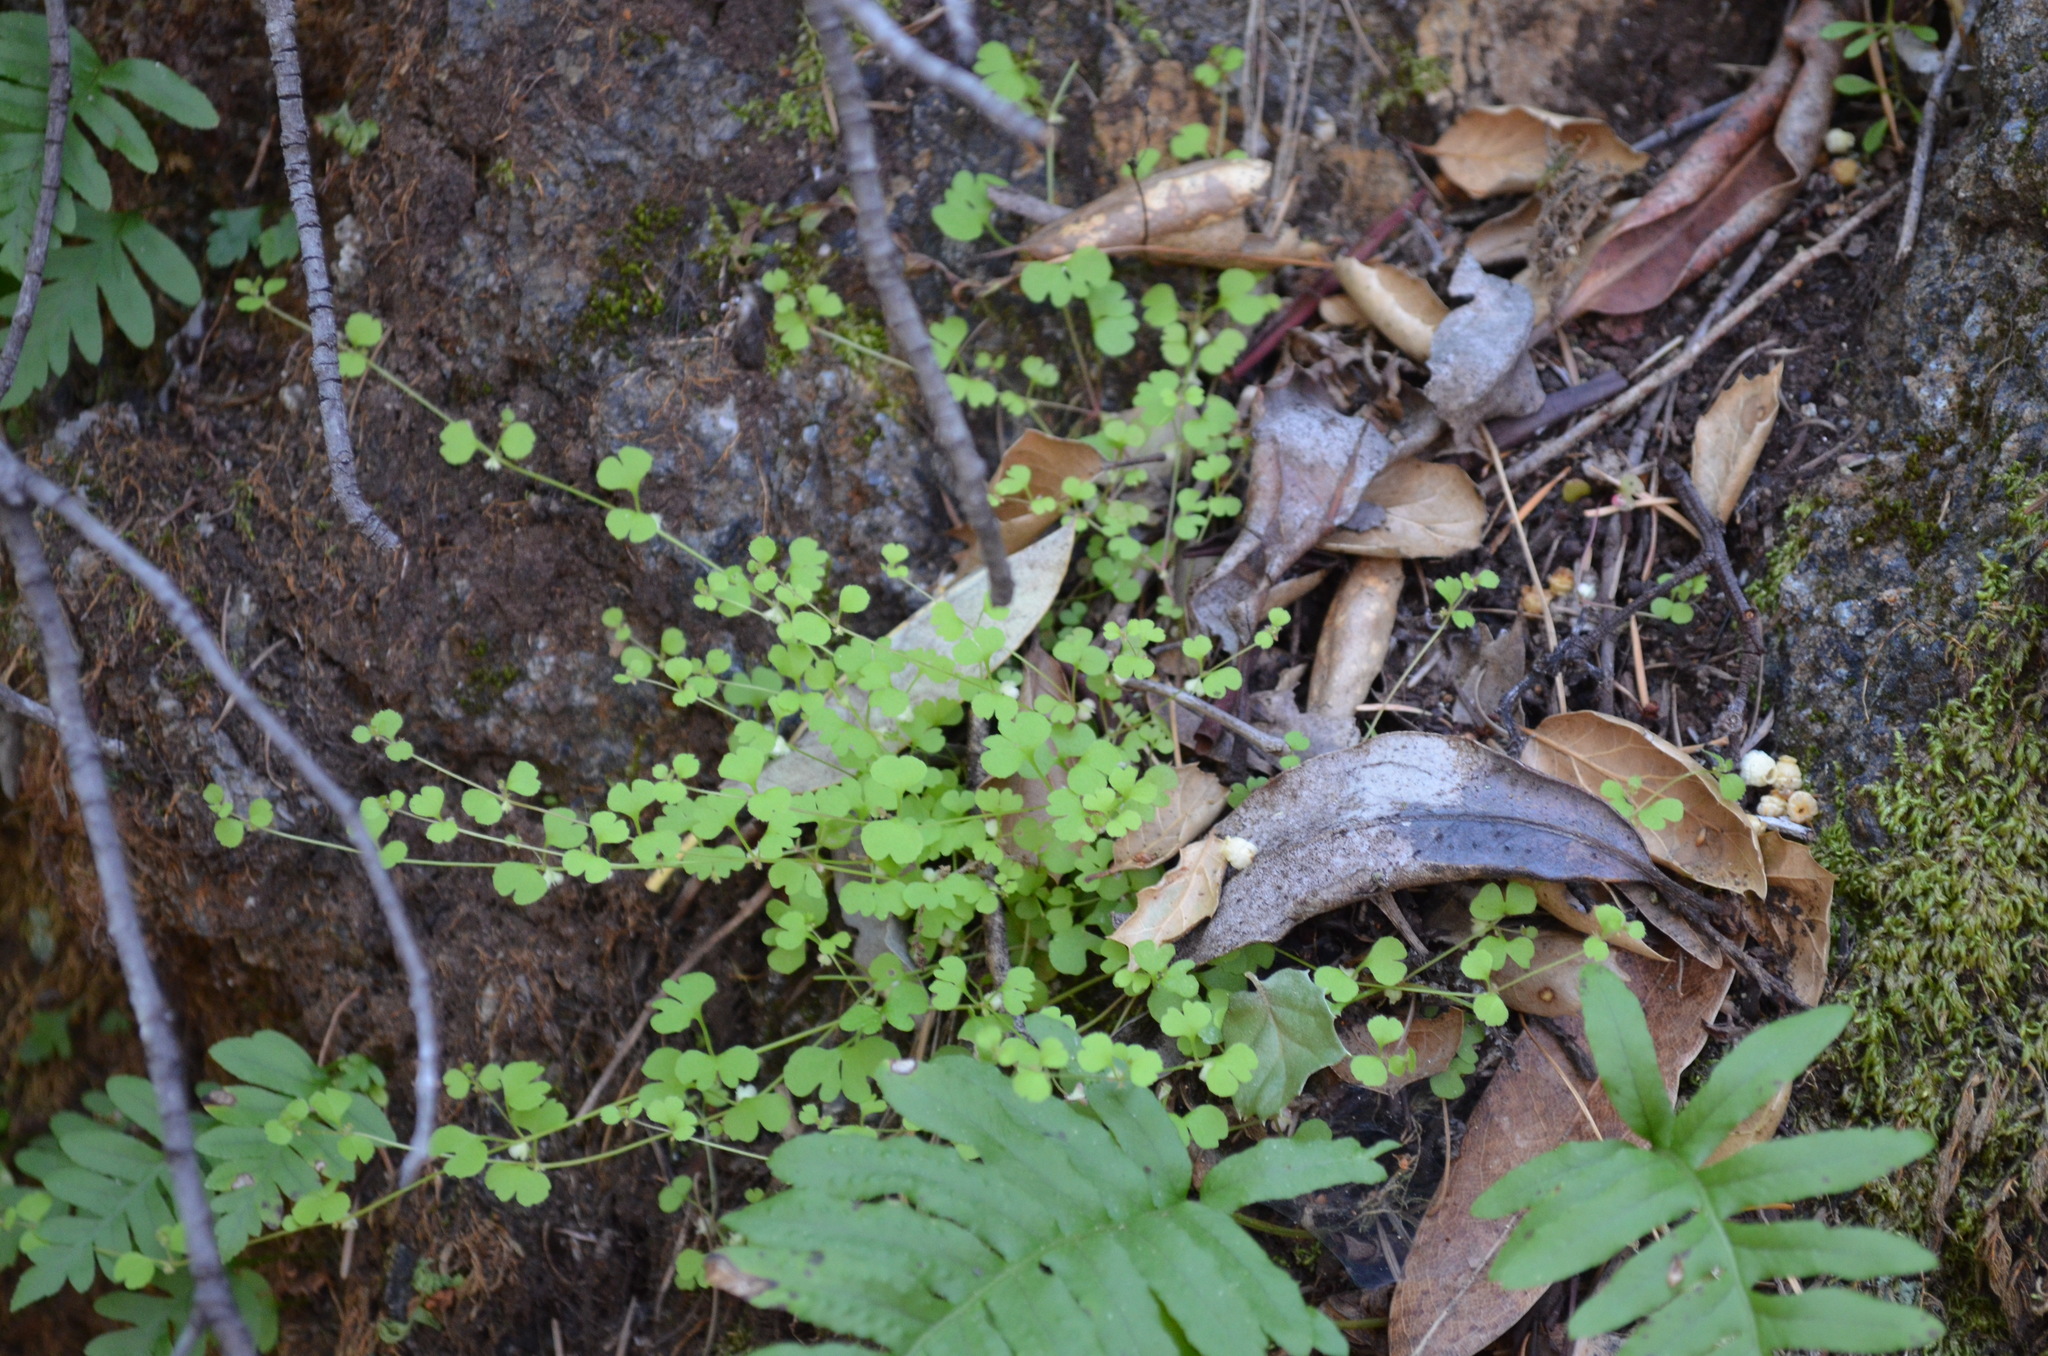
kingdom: Plantae
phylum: Tracheophyta
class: Magnoliopsida
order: Caryophyllales
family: Polygonaceae
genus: Pterostegia
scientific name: Pterostegia drymarioides
